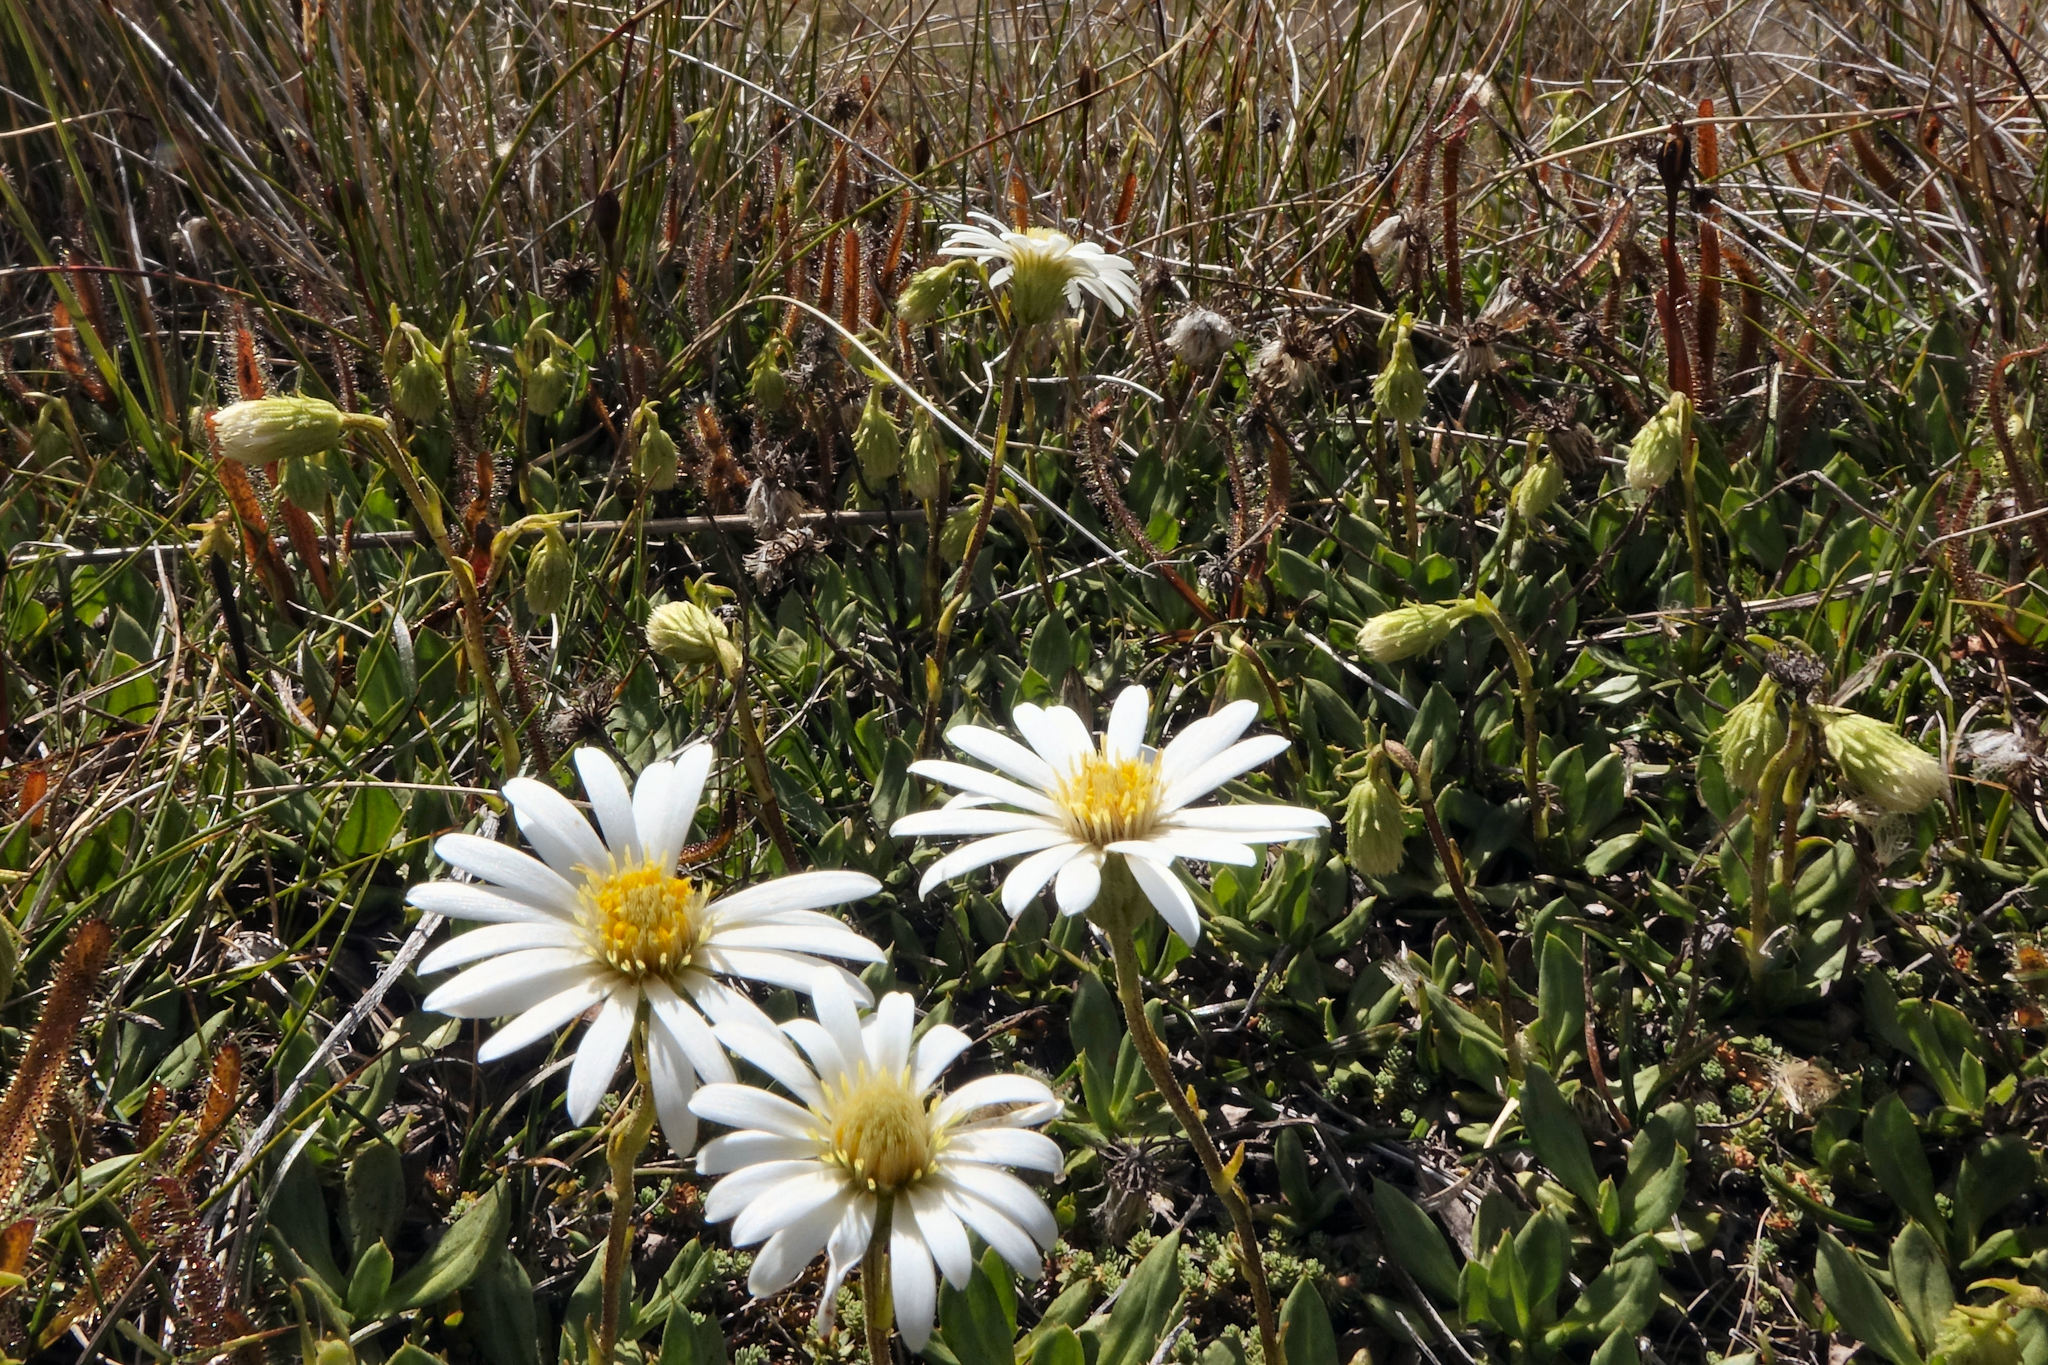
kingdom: Plantae
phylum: Tracheophyta
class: Magnoliopsida
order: Asterales
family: Asteraceae
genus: Celmisia
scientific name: Celmisia glandulosa
